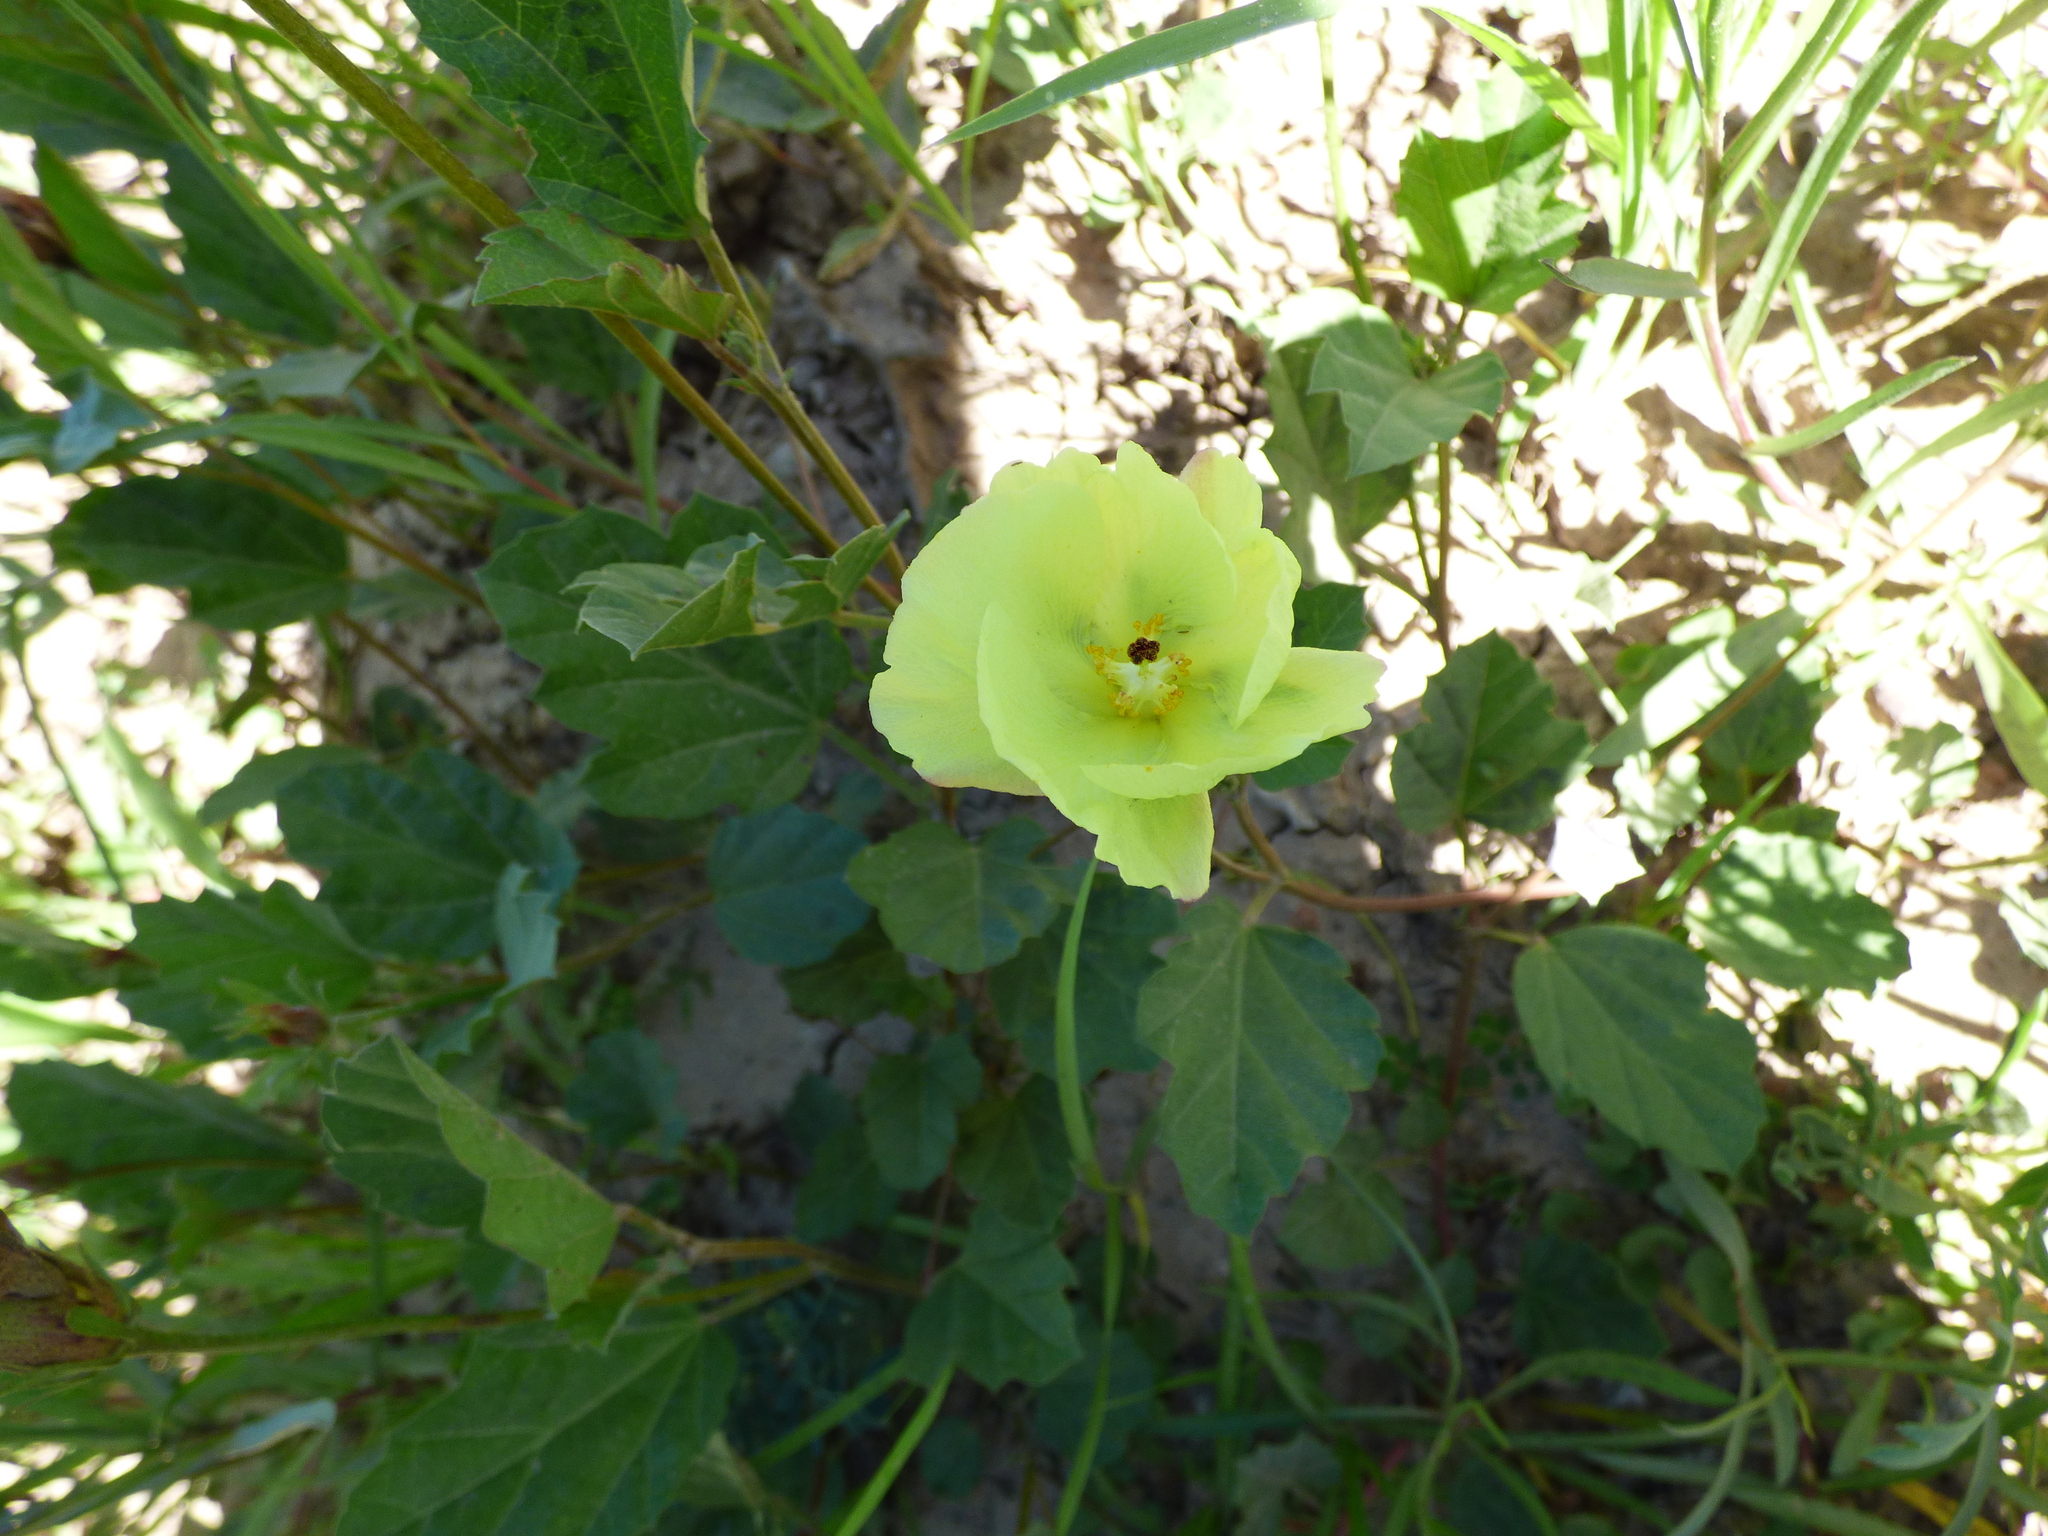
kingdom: Plantae
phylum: Tracheophyta
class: Magnoliopsida
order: Malvales
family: Malvaceae
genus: Cienfuegosia
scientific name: Cienfuegosia drummondii
